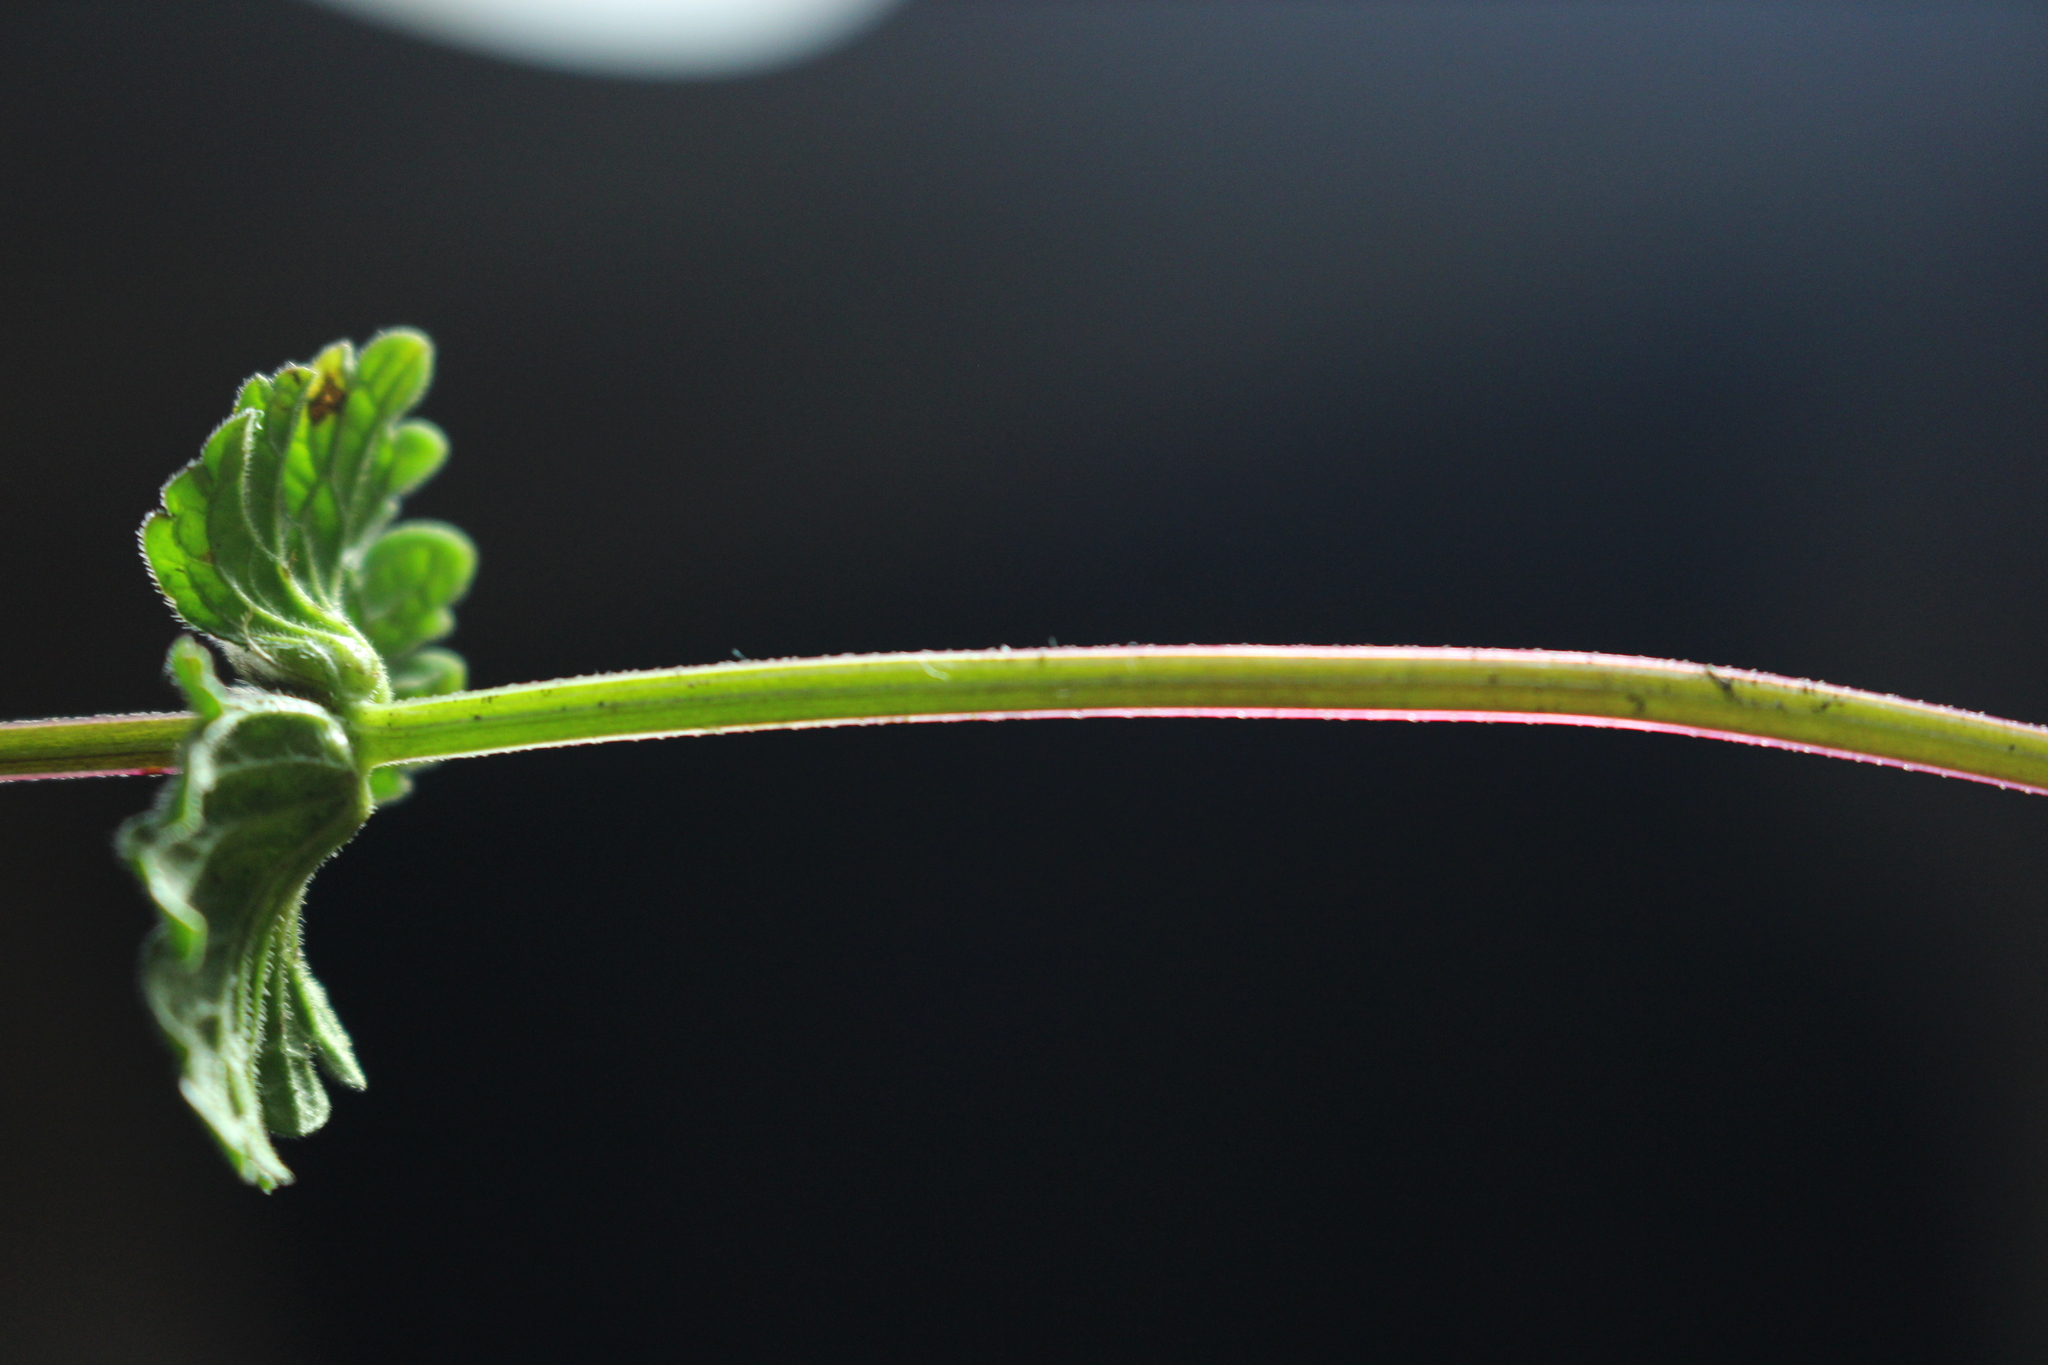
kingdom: Plantae
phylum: Tracheophyta
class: Magnoliopsida
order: Lamiales
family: Lamiaceae
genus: Lamium
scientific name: Lamium amplexicaule
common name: Henbit dead-nettle
